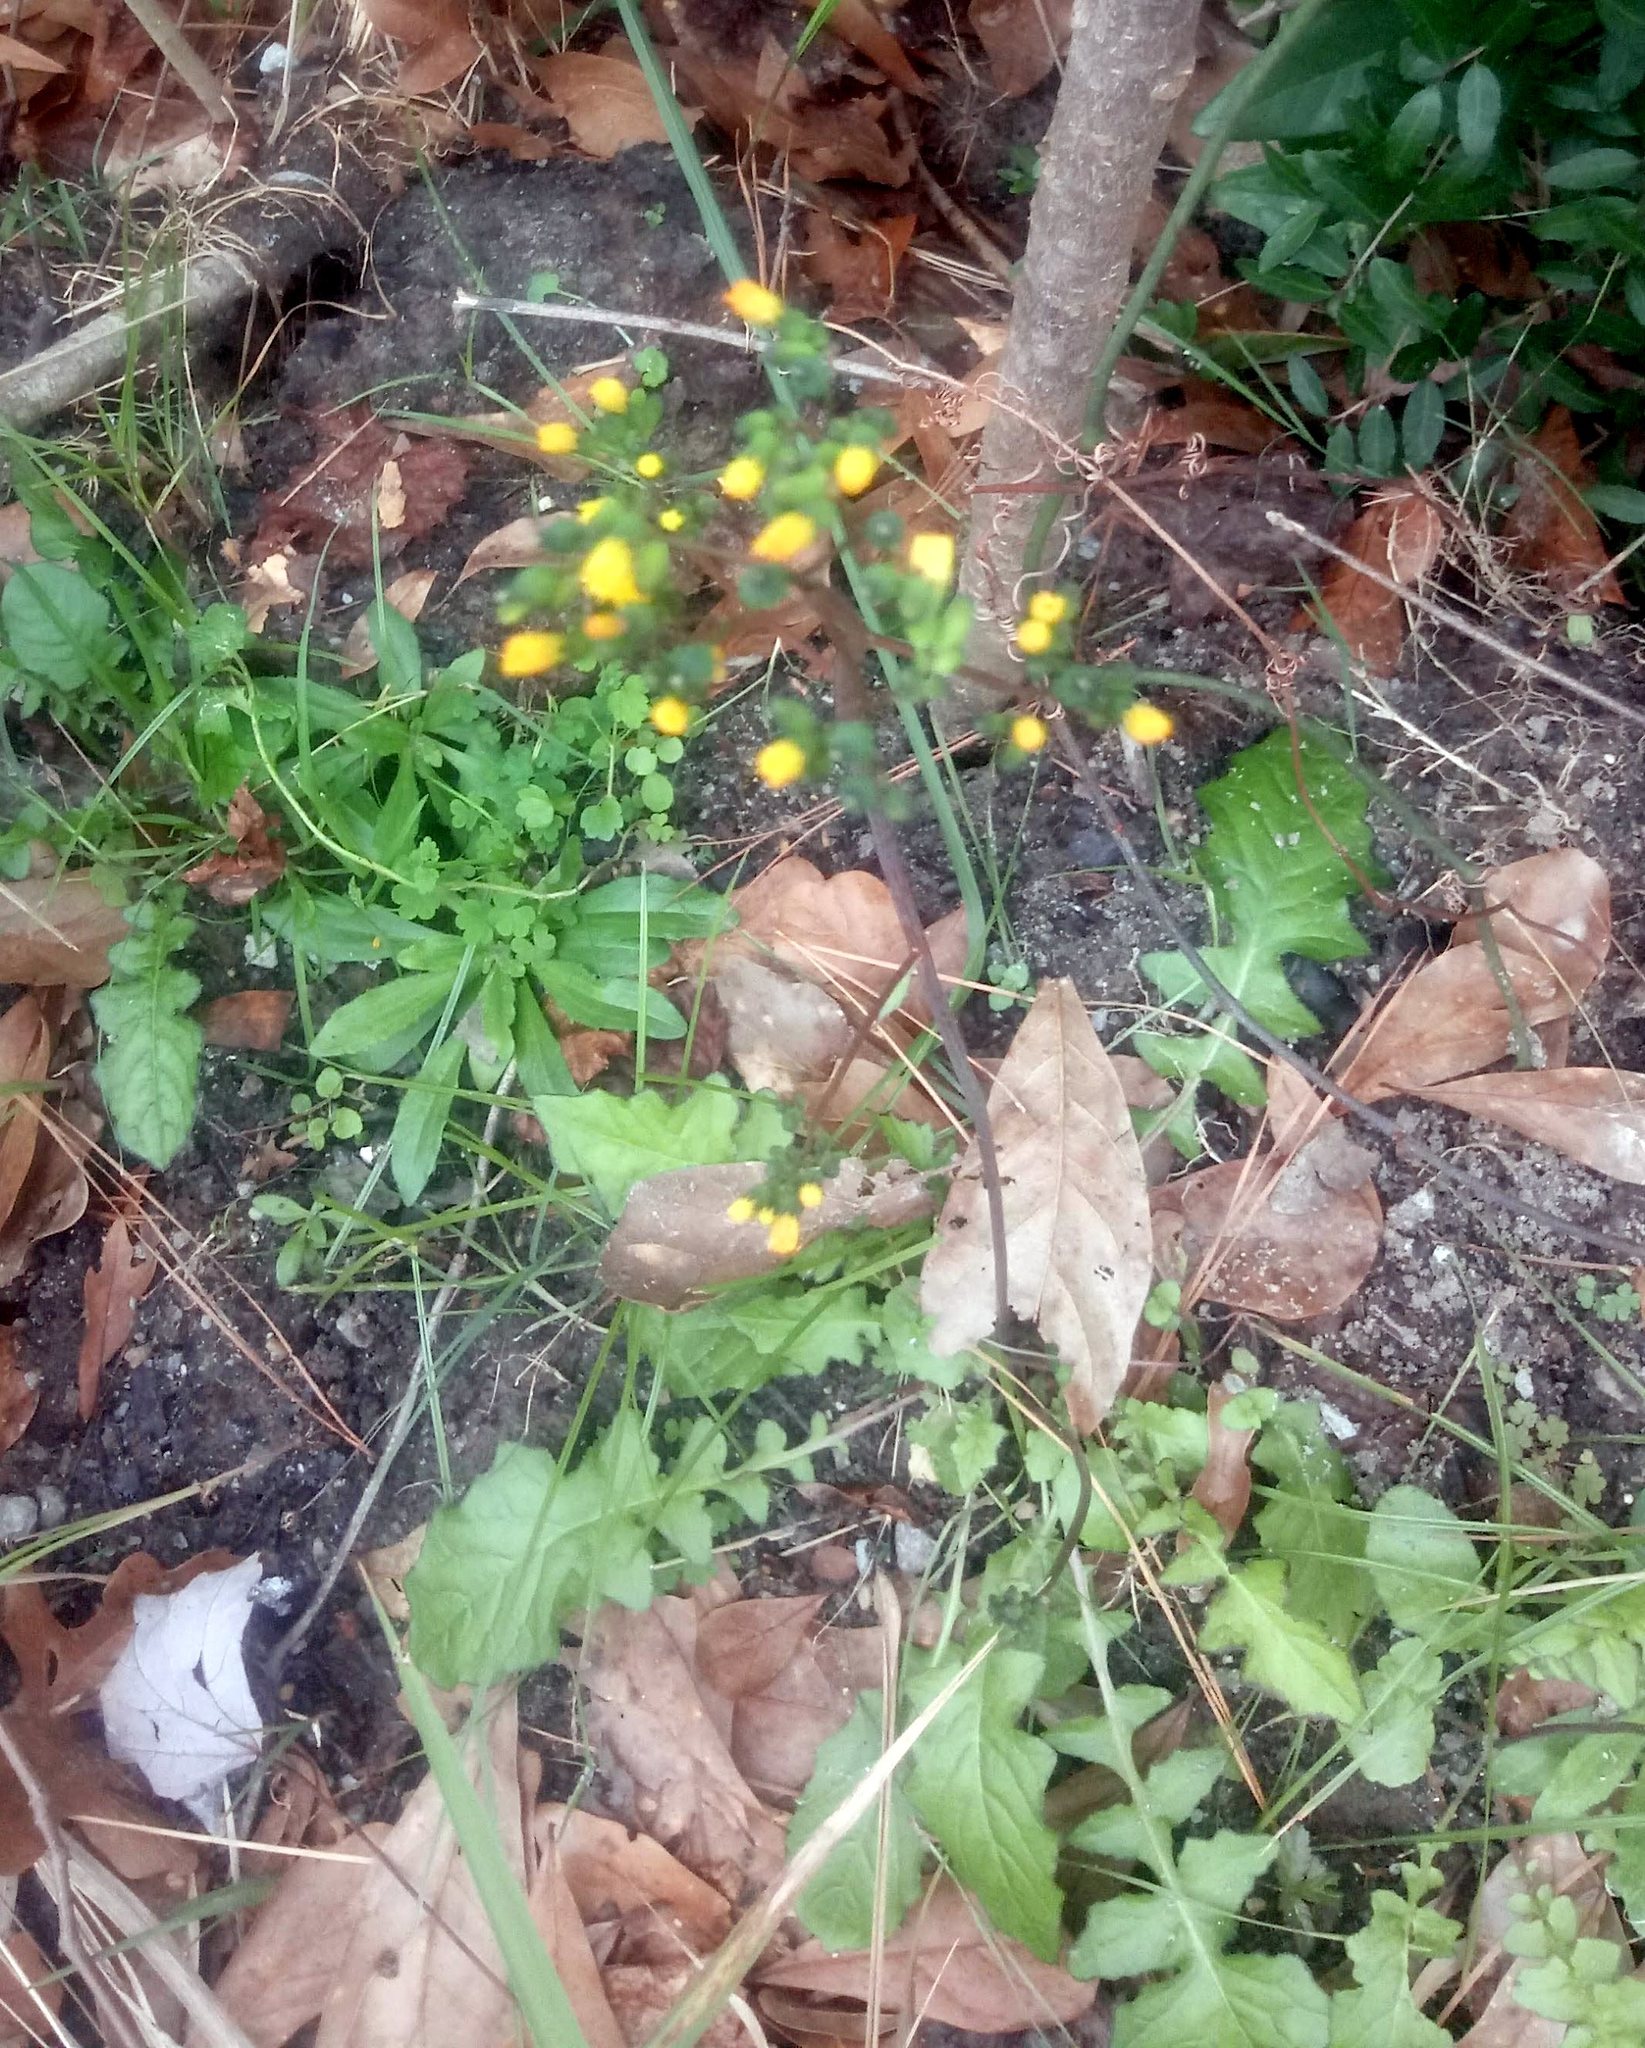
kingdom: Plantae
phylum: Tracheophyta
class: Magnoliopsida
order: Asterales
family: Asteraceae
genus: Youngia
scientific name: Youngia japonica
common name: Oriental false hawksbeard
